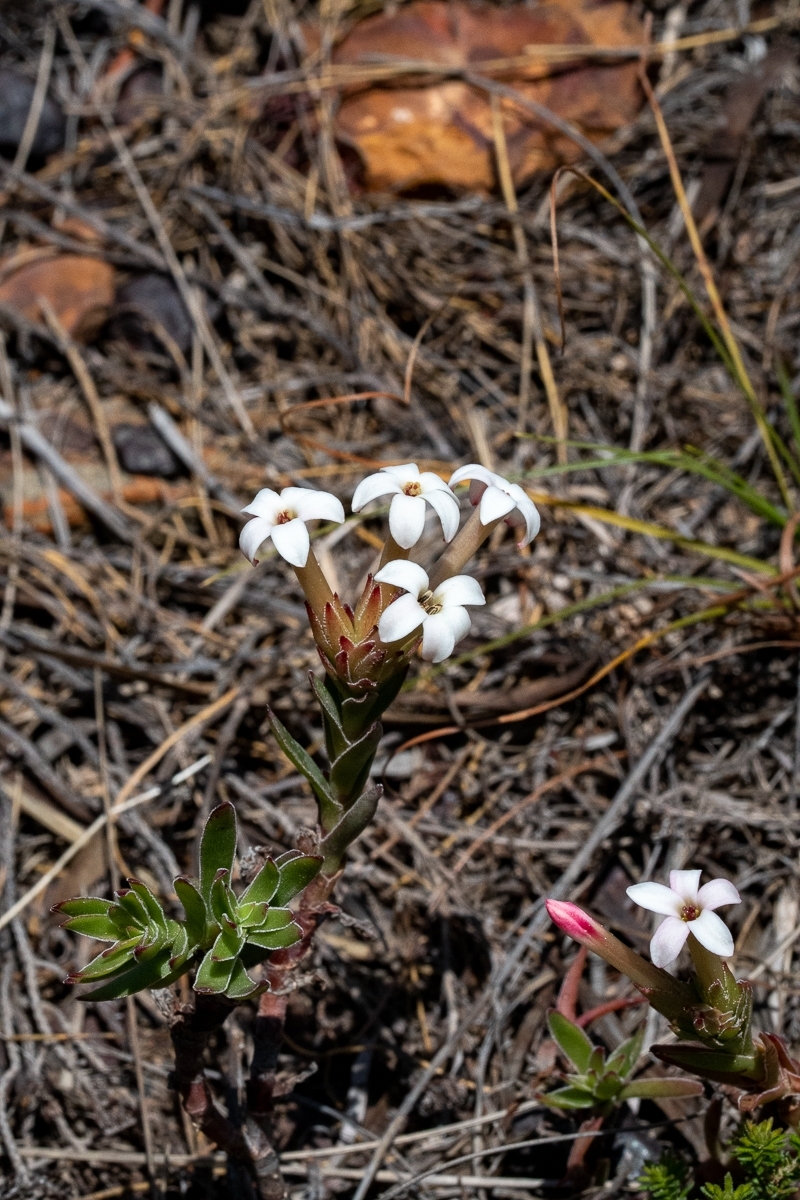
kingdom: Plantae
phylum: Tracheophyta
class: Magnoliopsida
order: Saxifragales
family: Crassulaceae
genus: Crassula
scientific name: Crassula fascicularis
